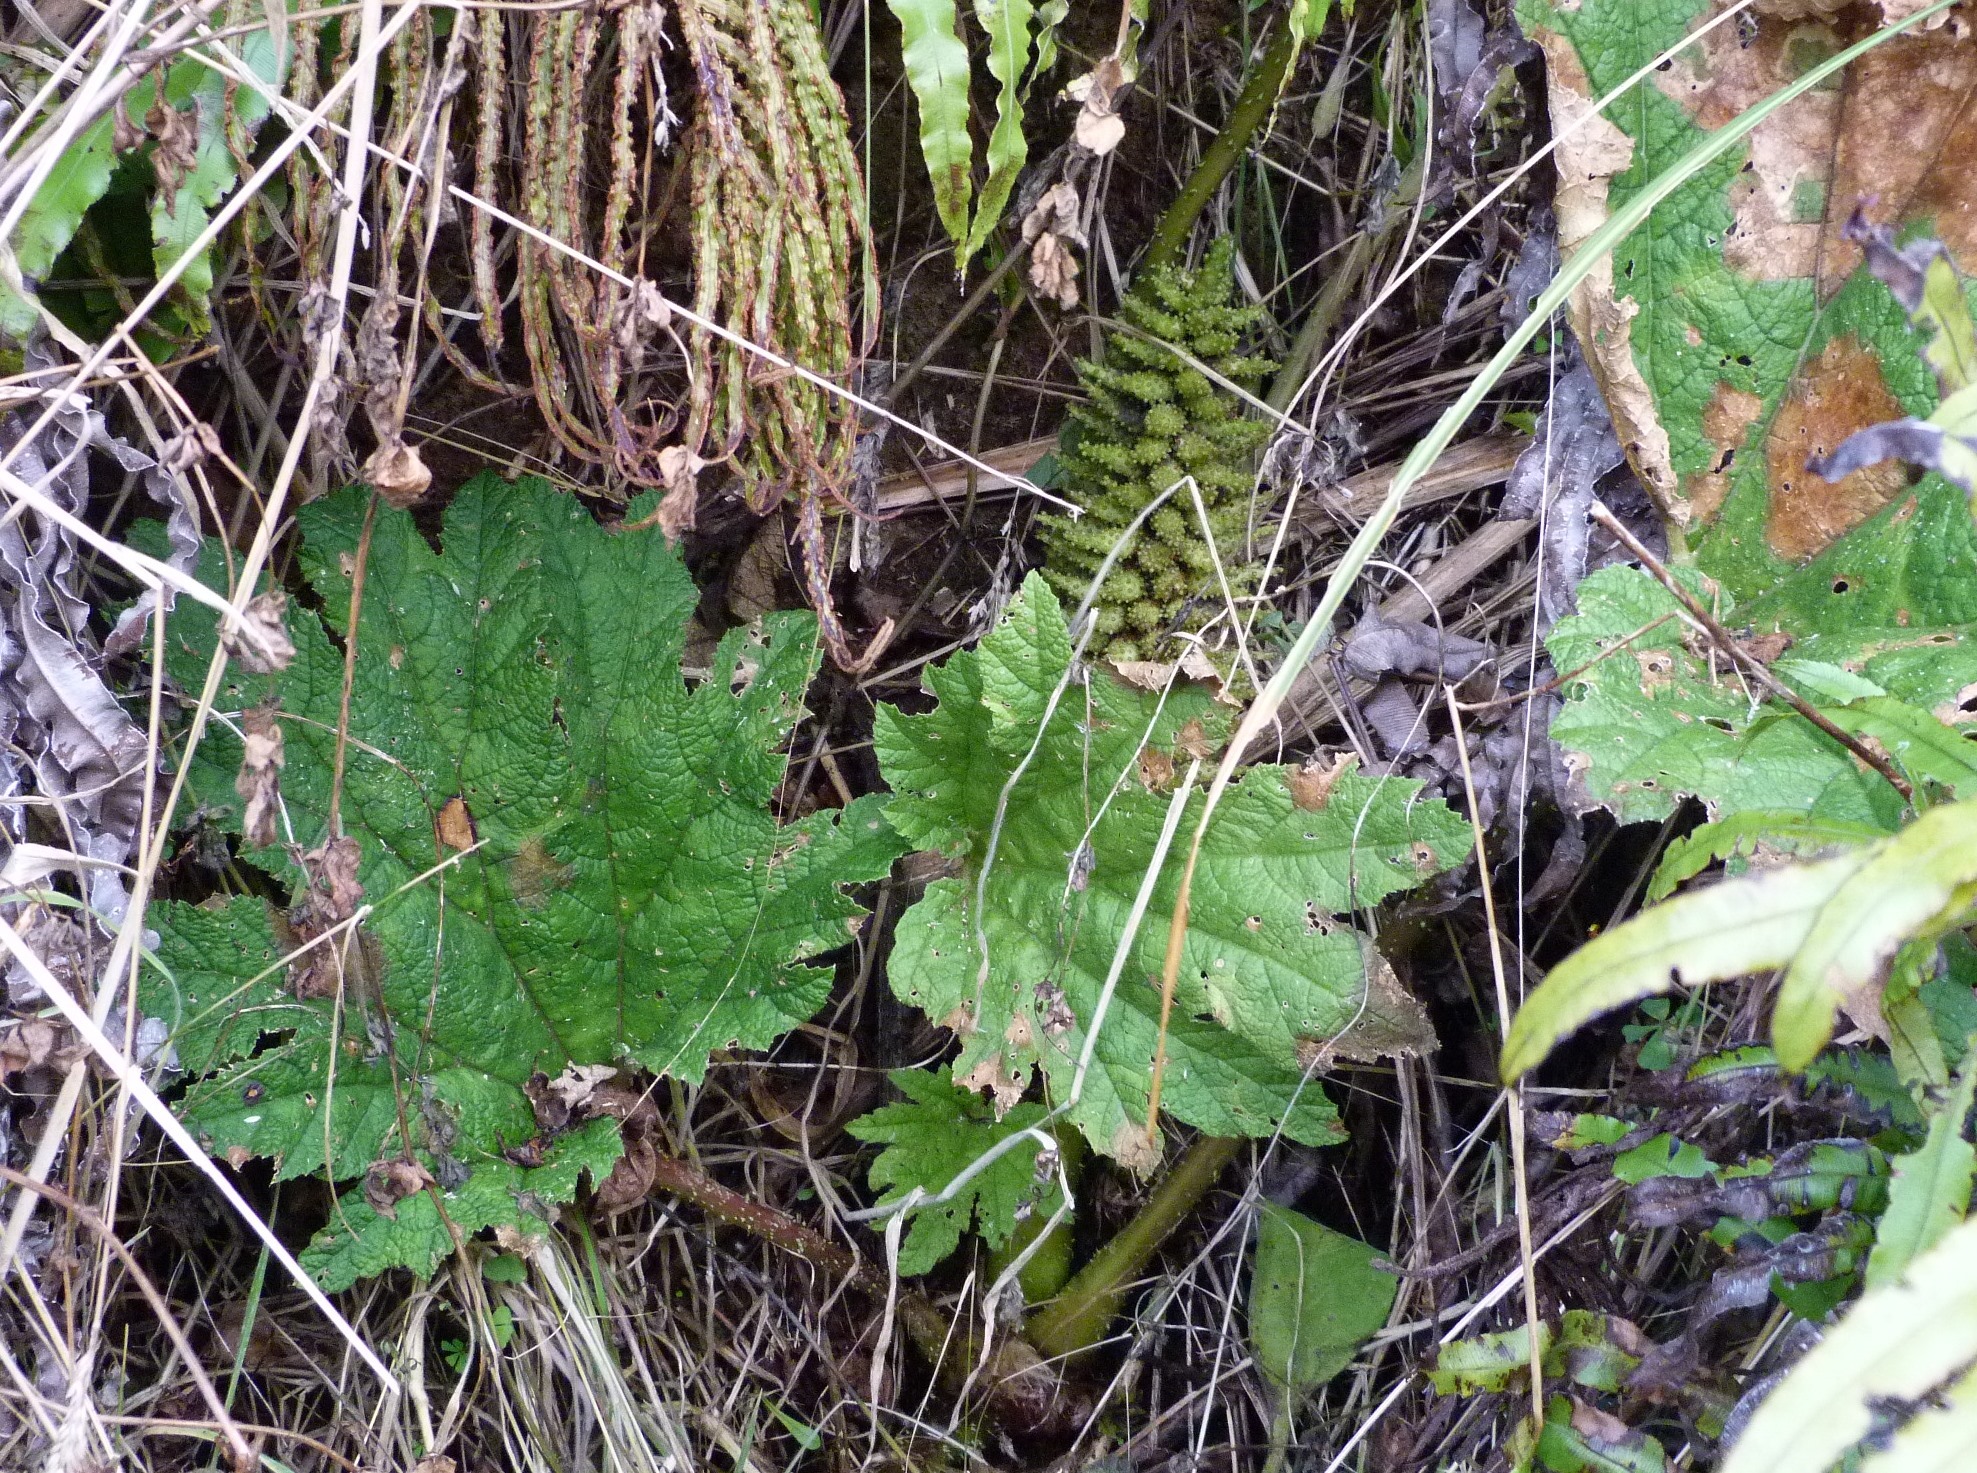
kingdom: Plantae
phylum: Tracheophyta
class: Magnoliopsida
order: Gunnerales
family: Gunneraceae
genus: Gunnera
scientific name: Gunnera tinctoria
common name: Giant-rhubarb
